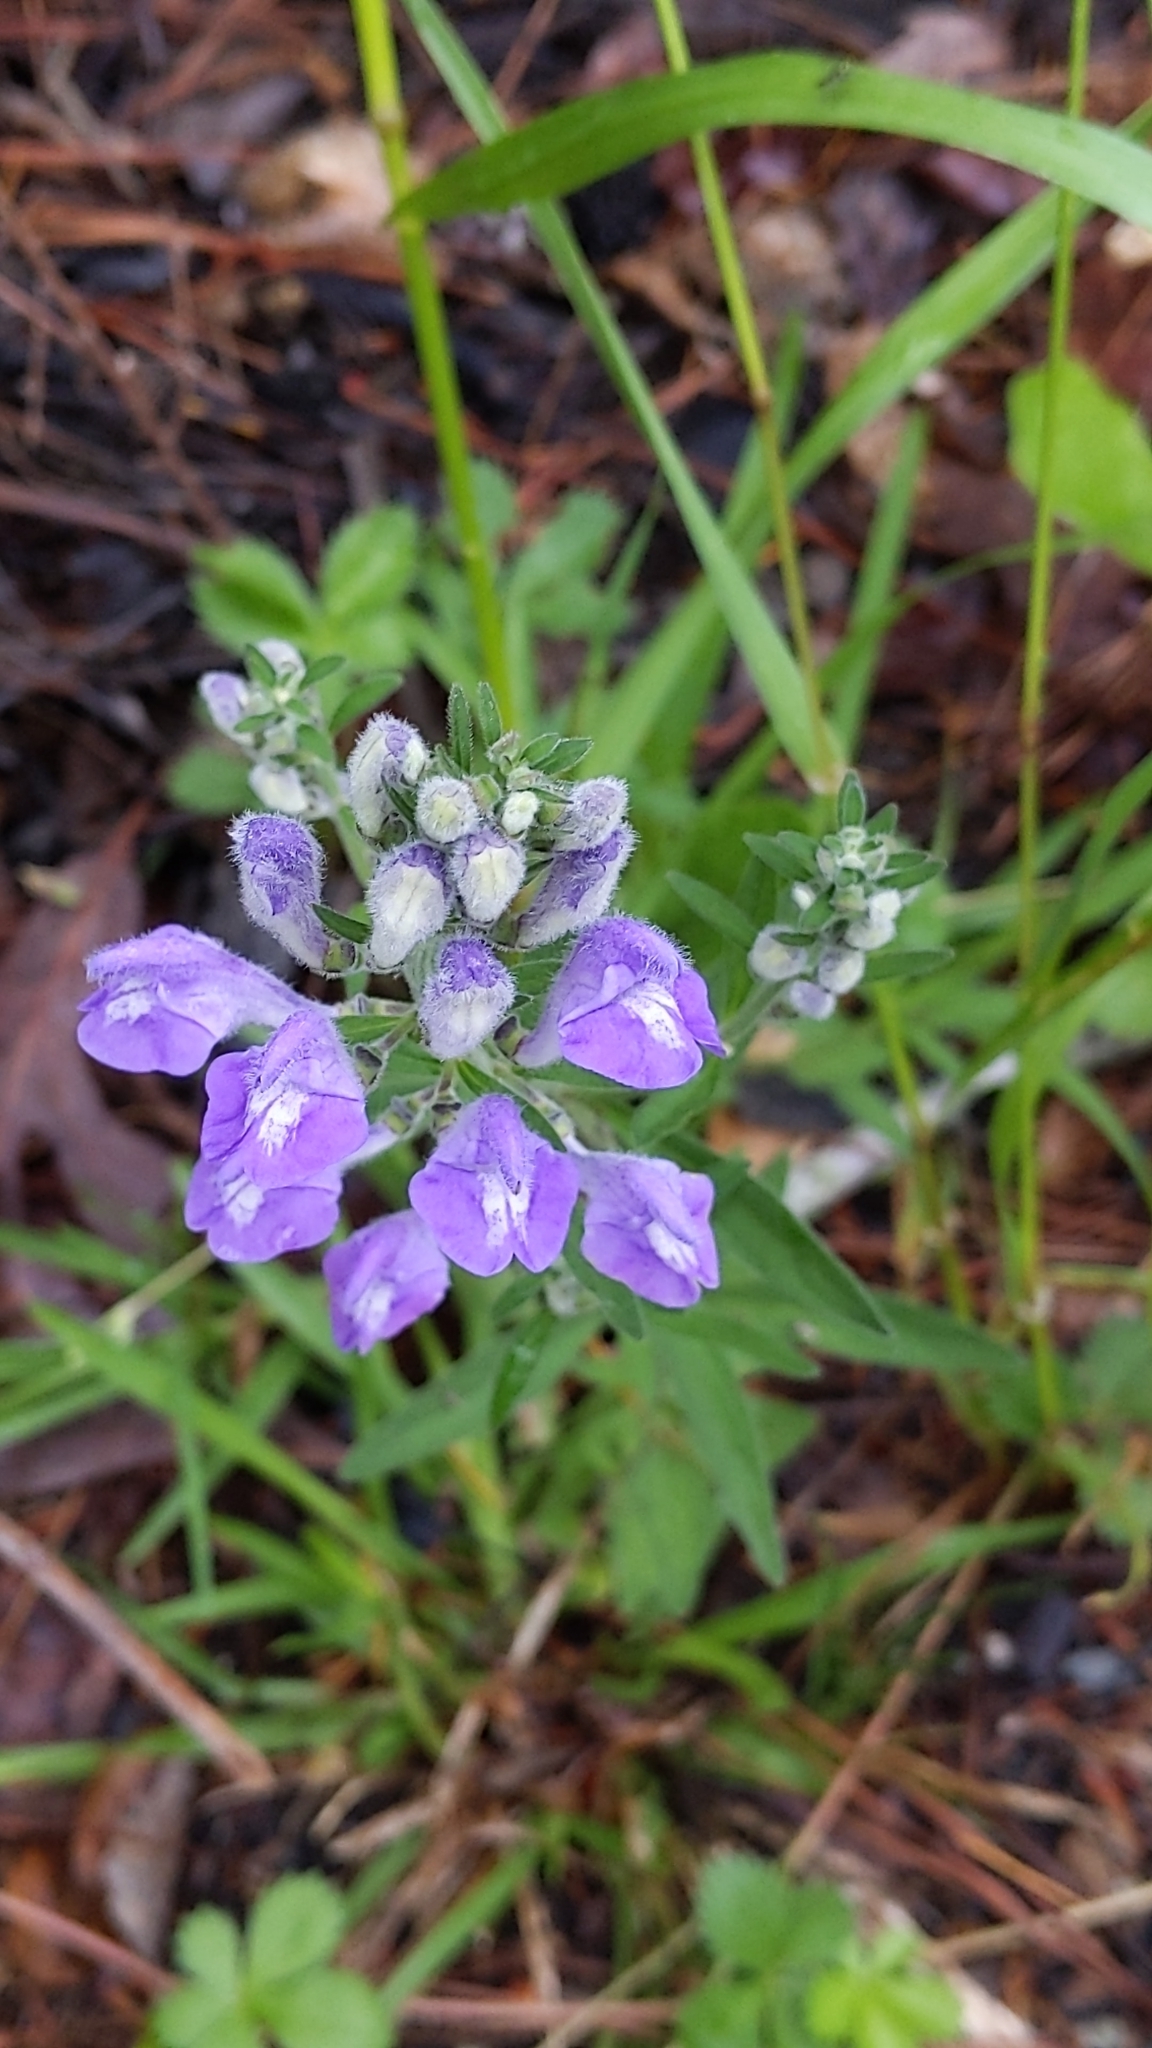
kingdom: Plantae
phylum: Tracheophyta
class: Magnoliopsida
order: Lamiales
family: Lamiaceae
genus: Scutellaria
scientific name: Scutellaria integrifolia
